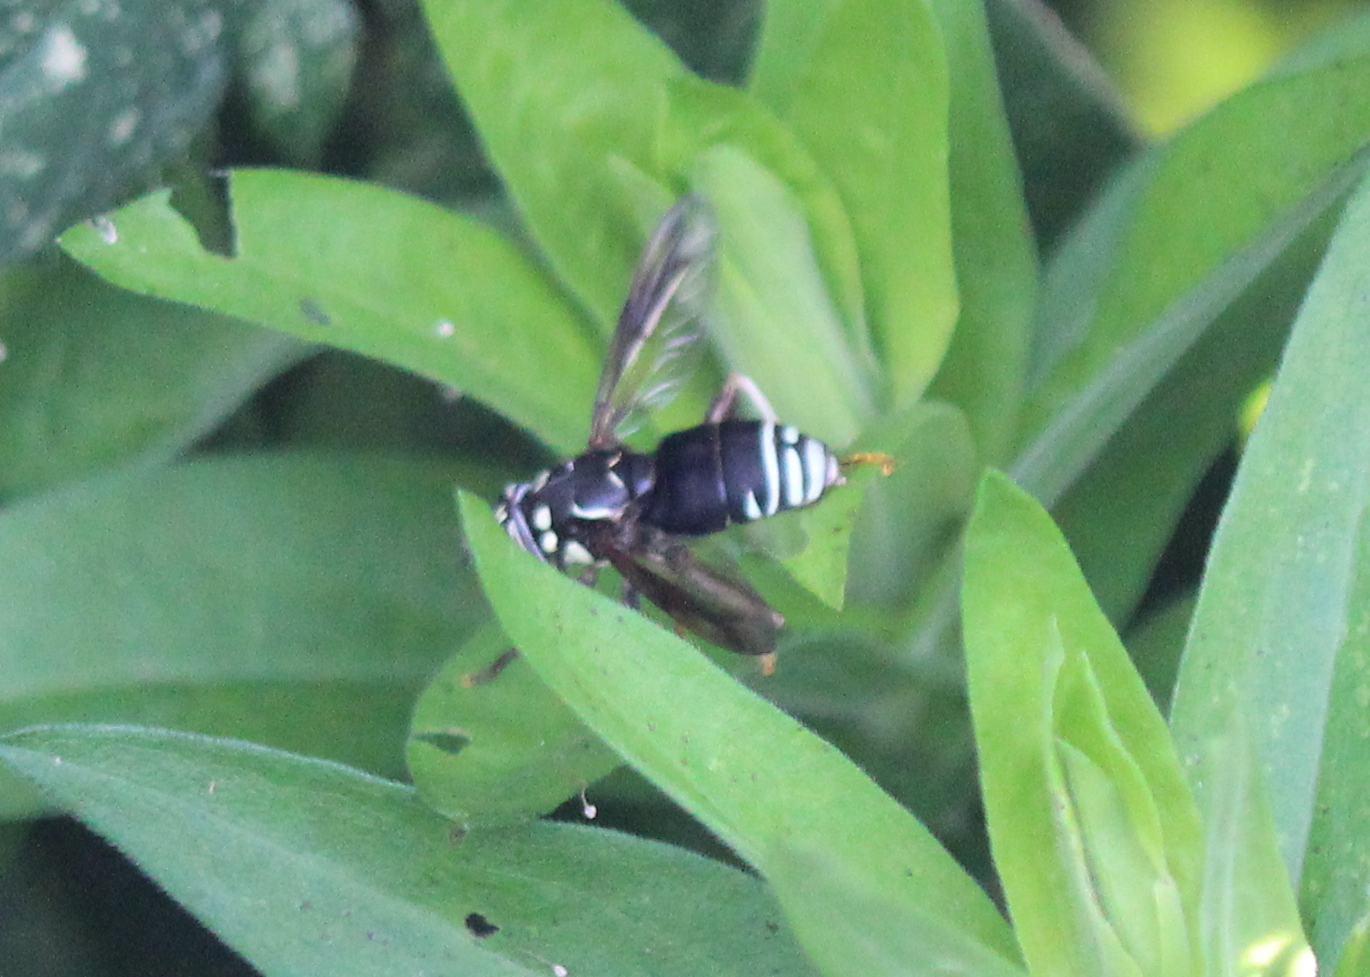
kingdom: Animalia
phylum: Arthropoda
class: Insecta
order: Diptera
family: Syrphidae
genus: Spilomyia
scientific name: Spilomyia fusca
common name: Bald-faced hornet fly
